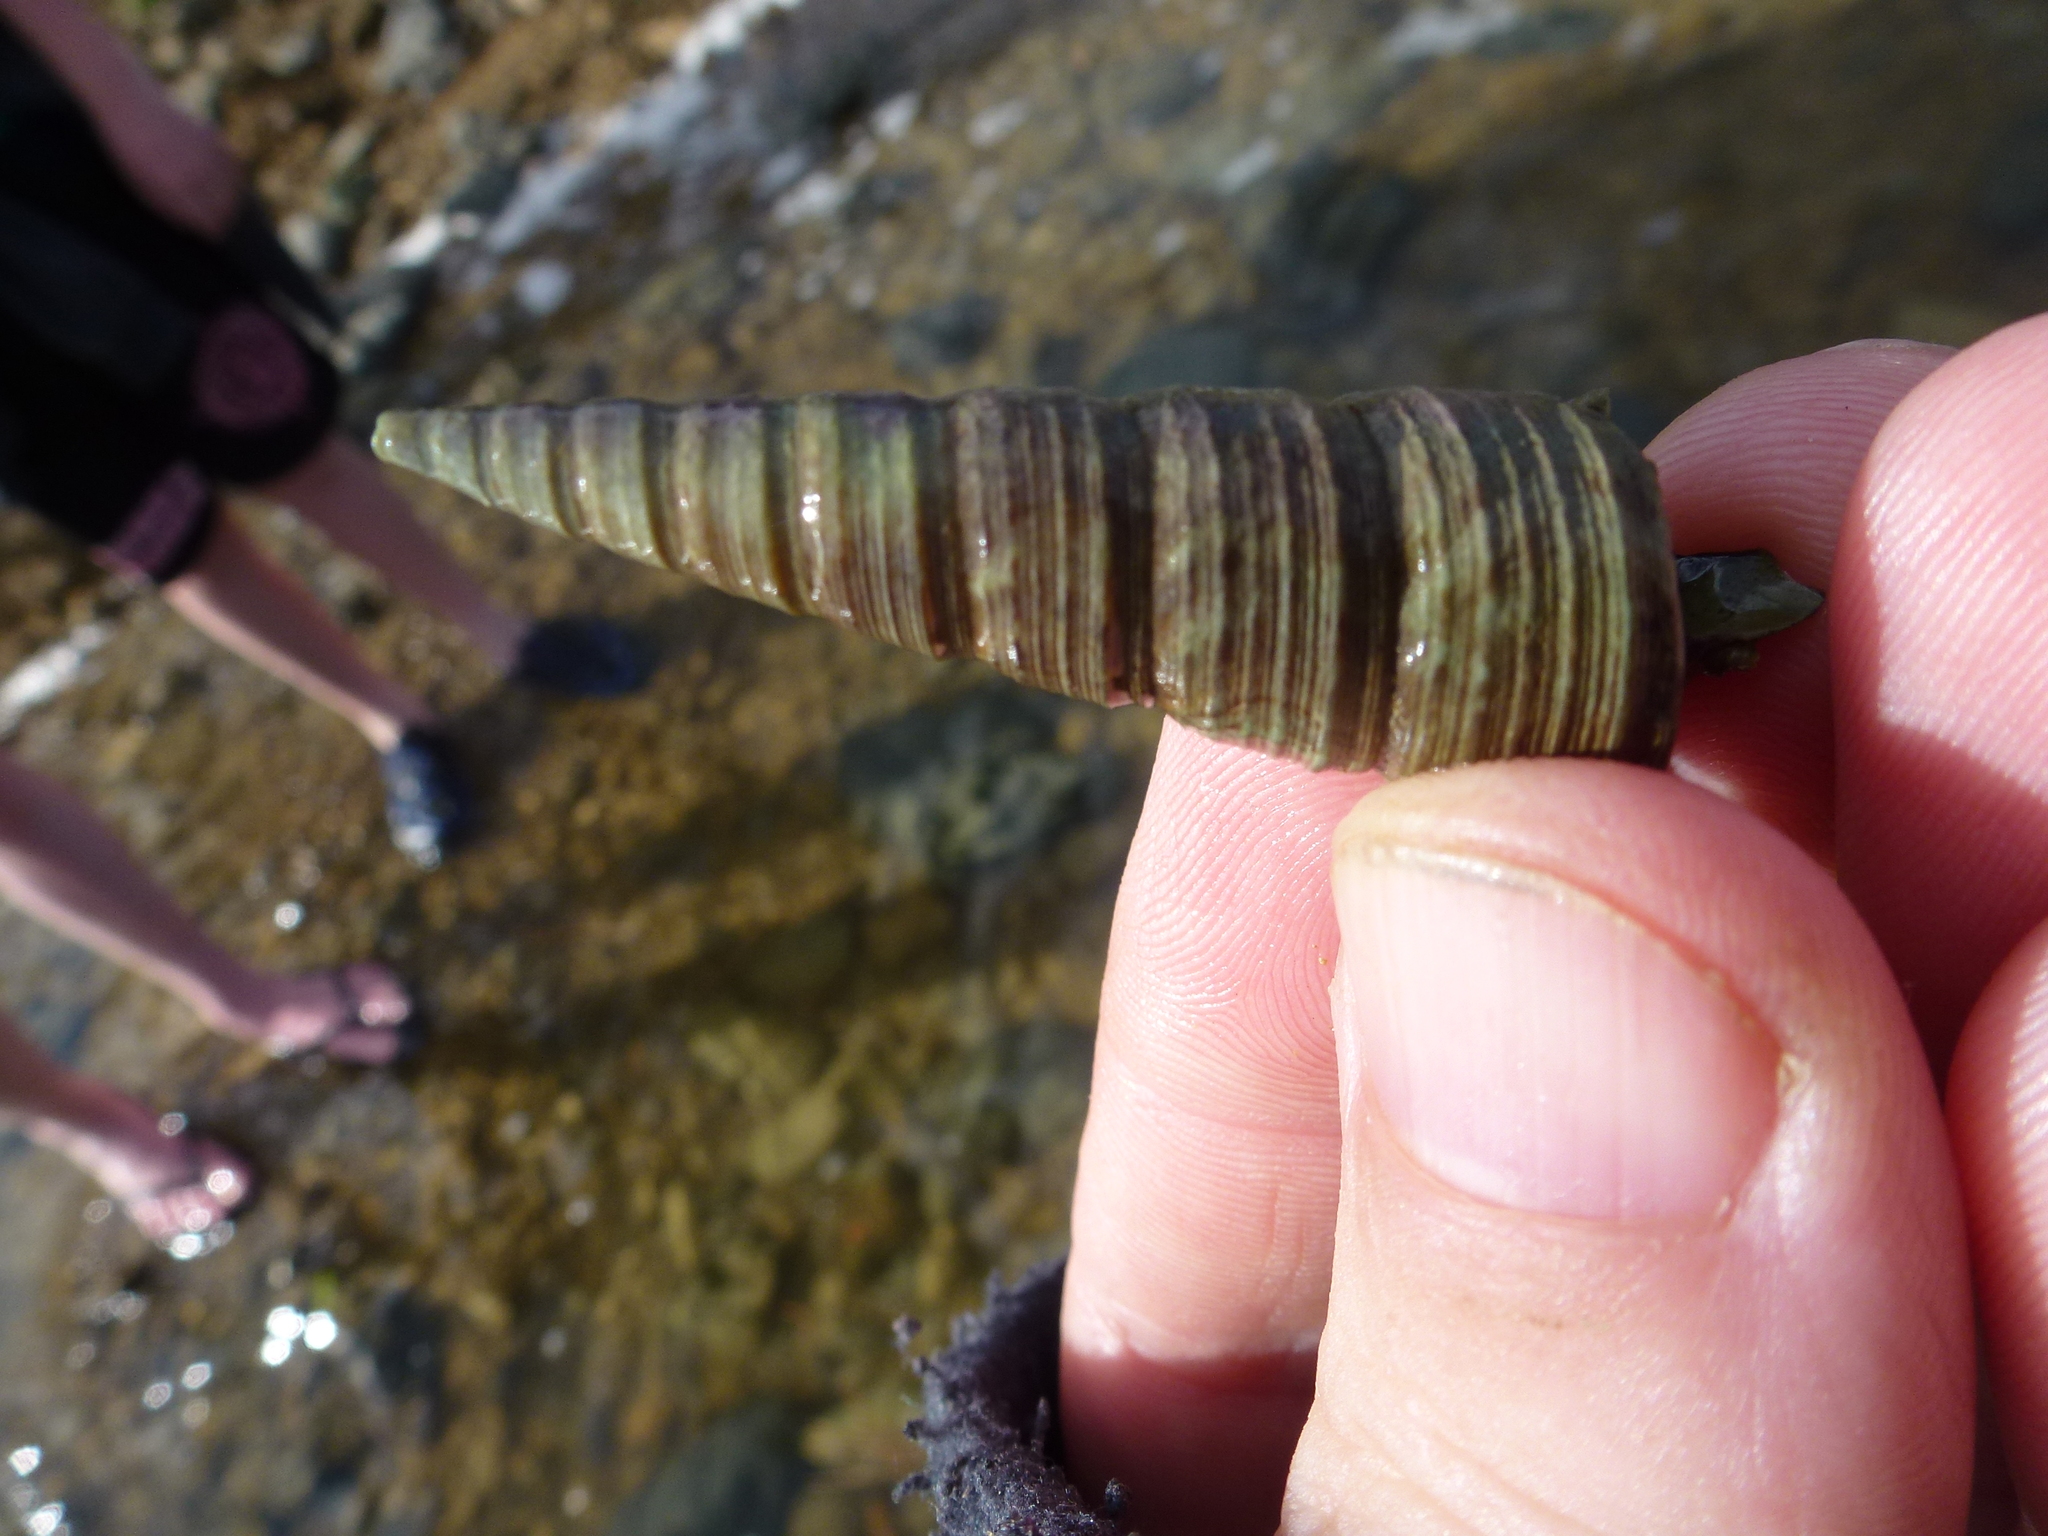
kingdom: Animalia
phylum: Mollusca
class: Gastropoda
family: Turritellidae
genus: Maoricolpus
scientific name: Maoricolpus roseus
